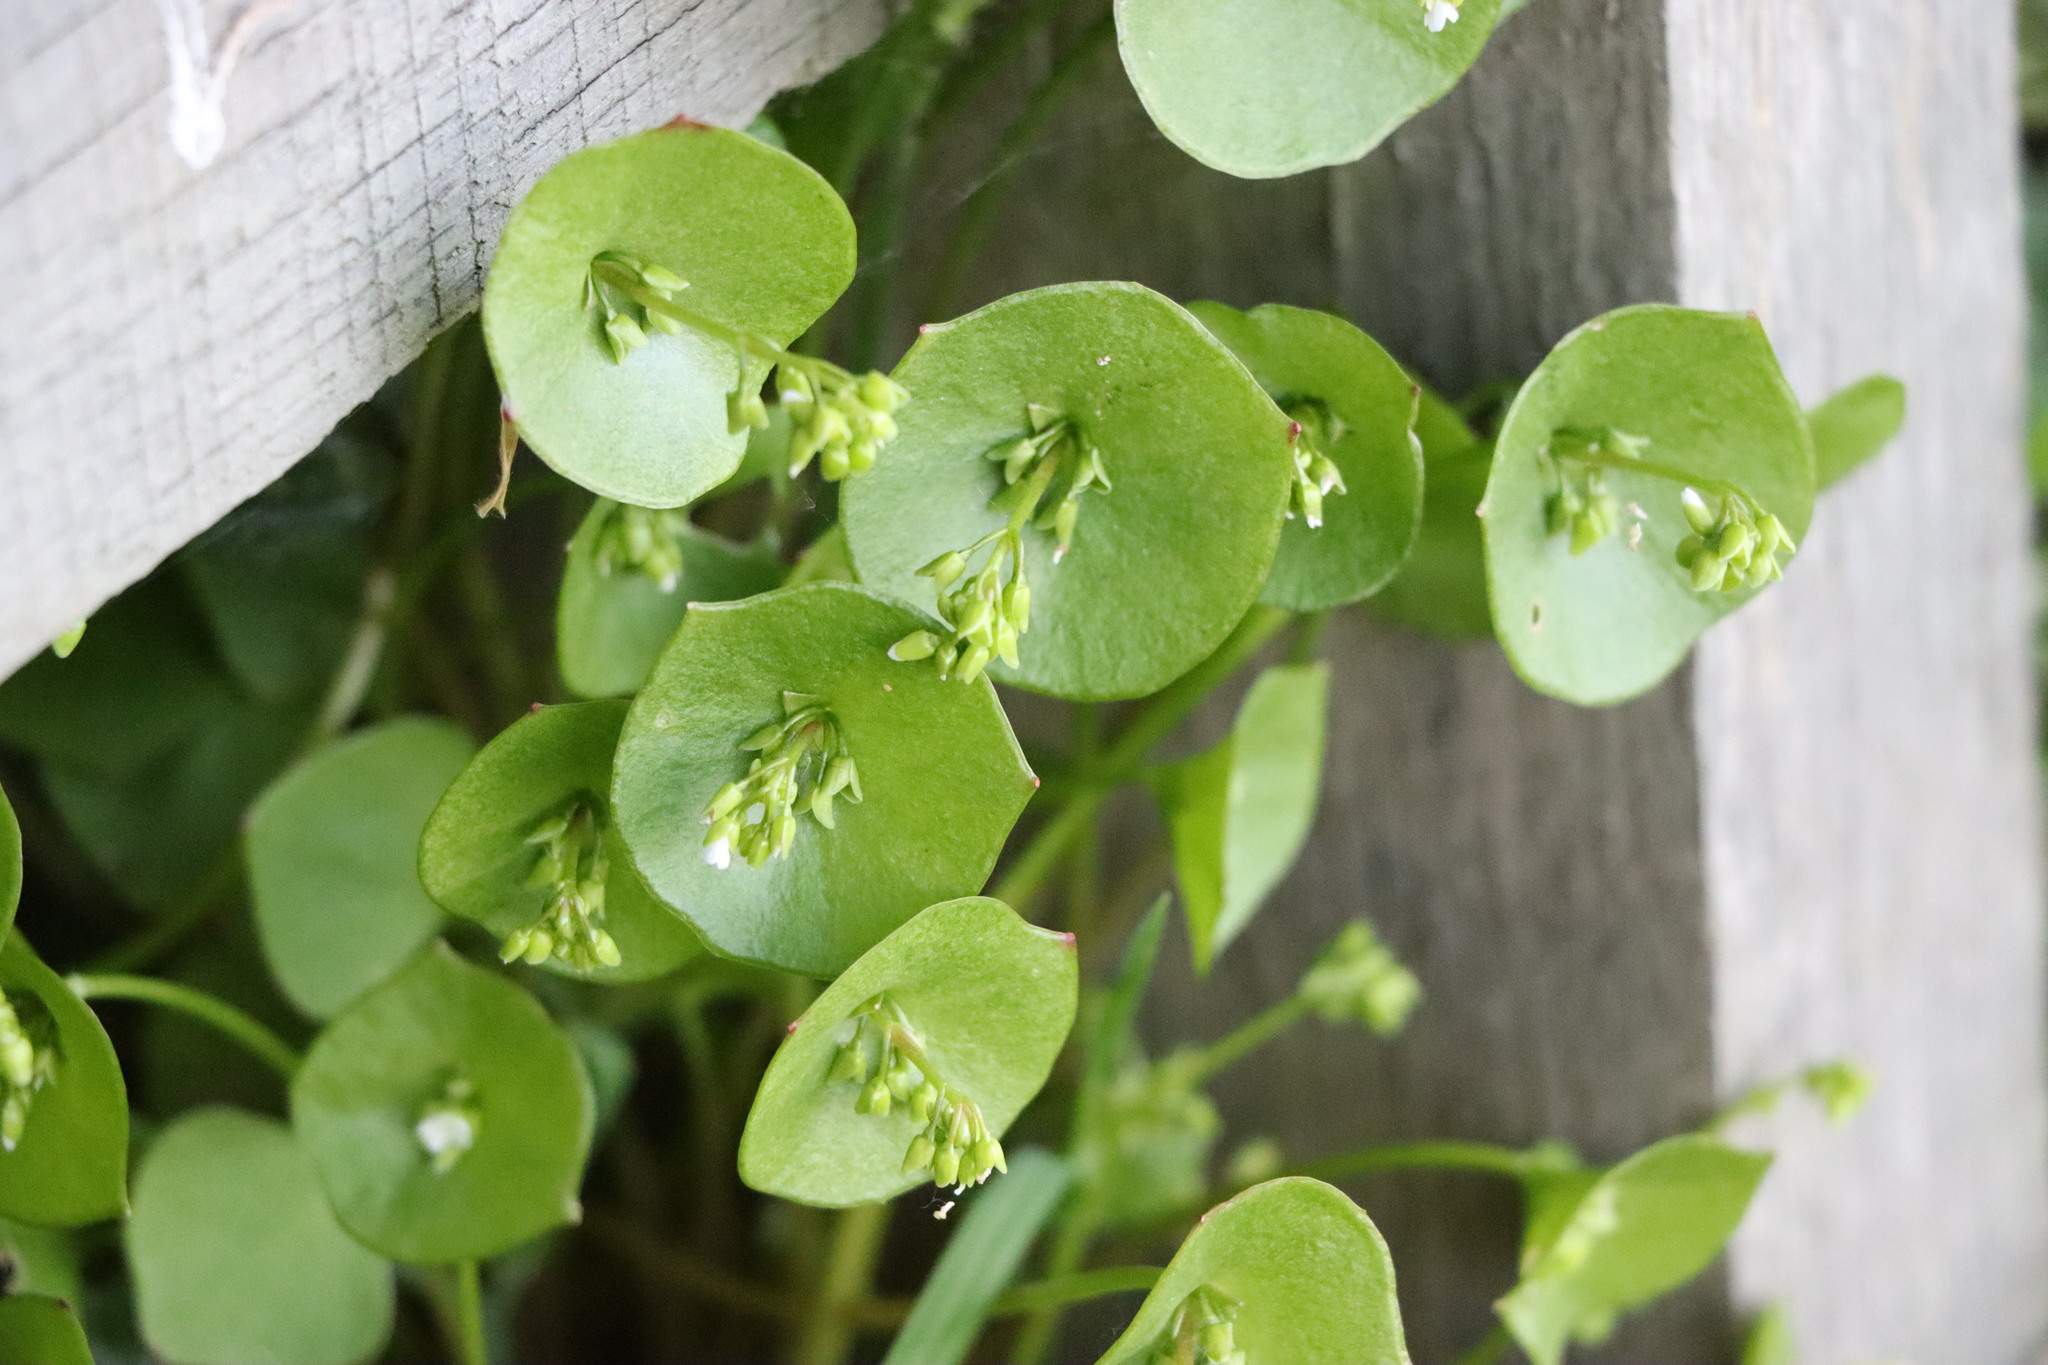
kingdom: Plantae
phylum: Tracheophyta
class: Magnoliopsida
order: Caryophyllales
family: Montiaceae
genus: Claytonia
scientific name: Claytonia perfoliata
